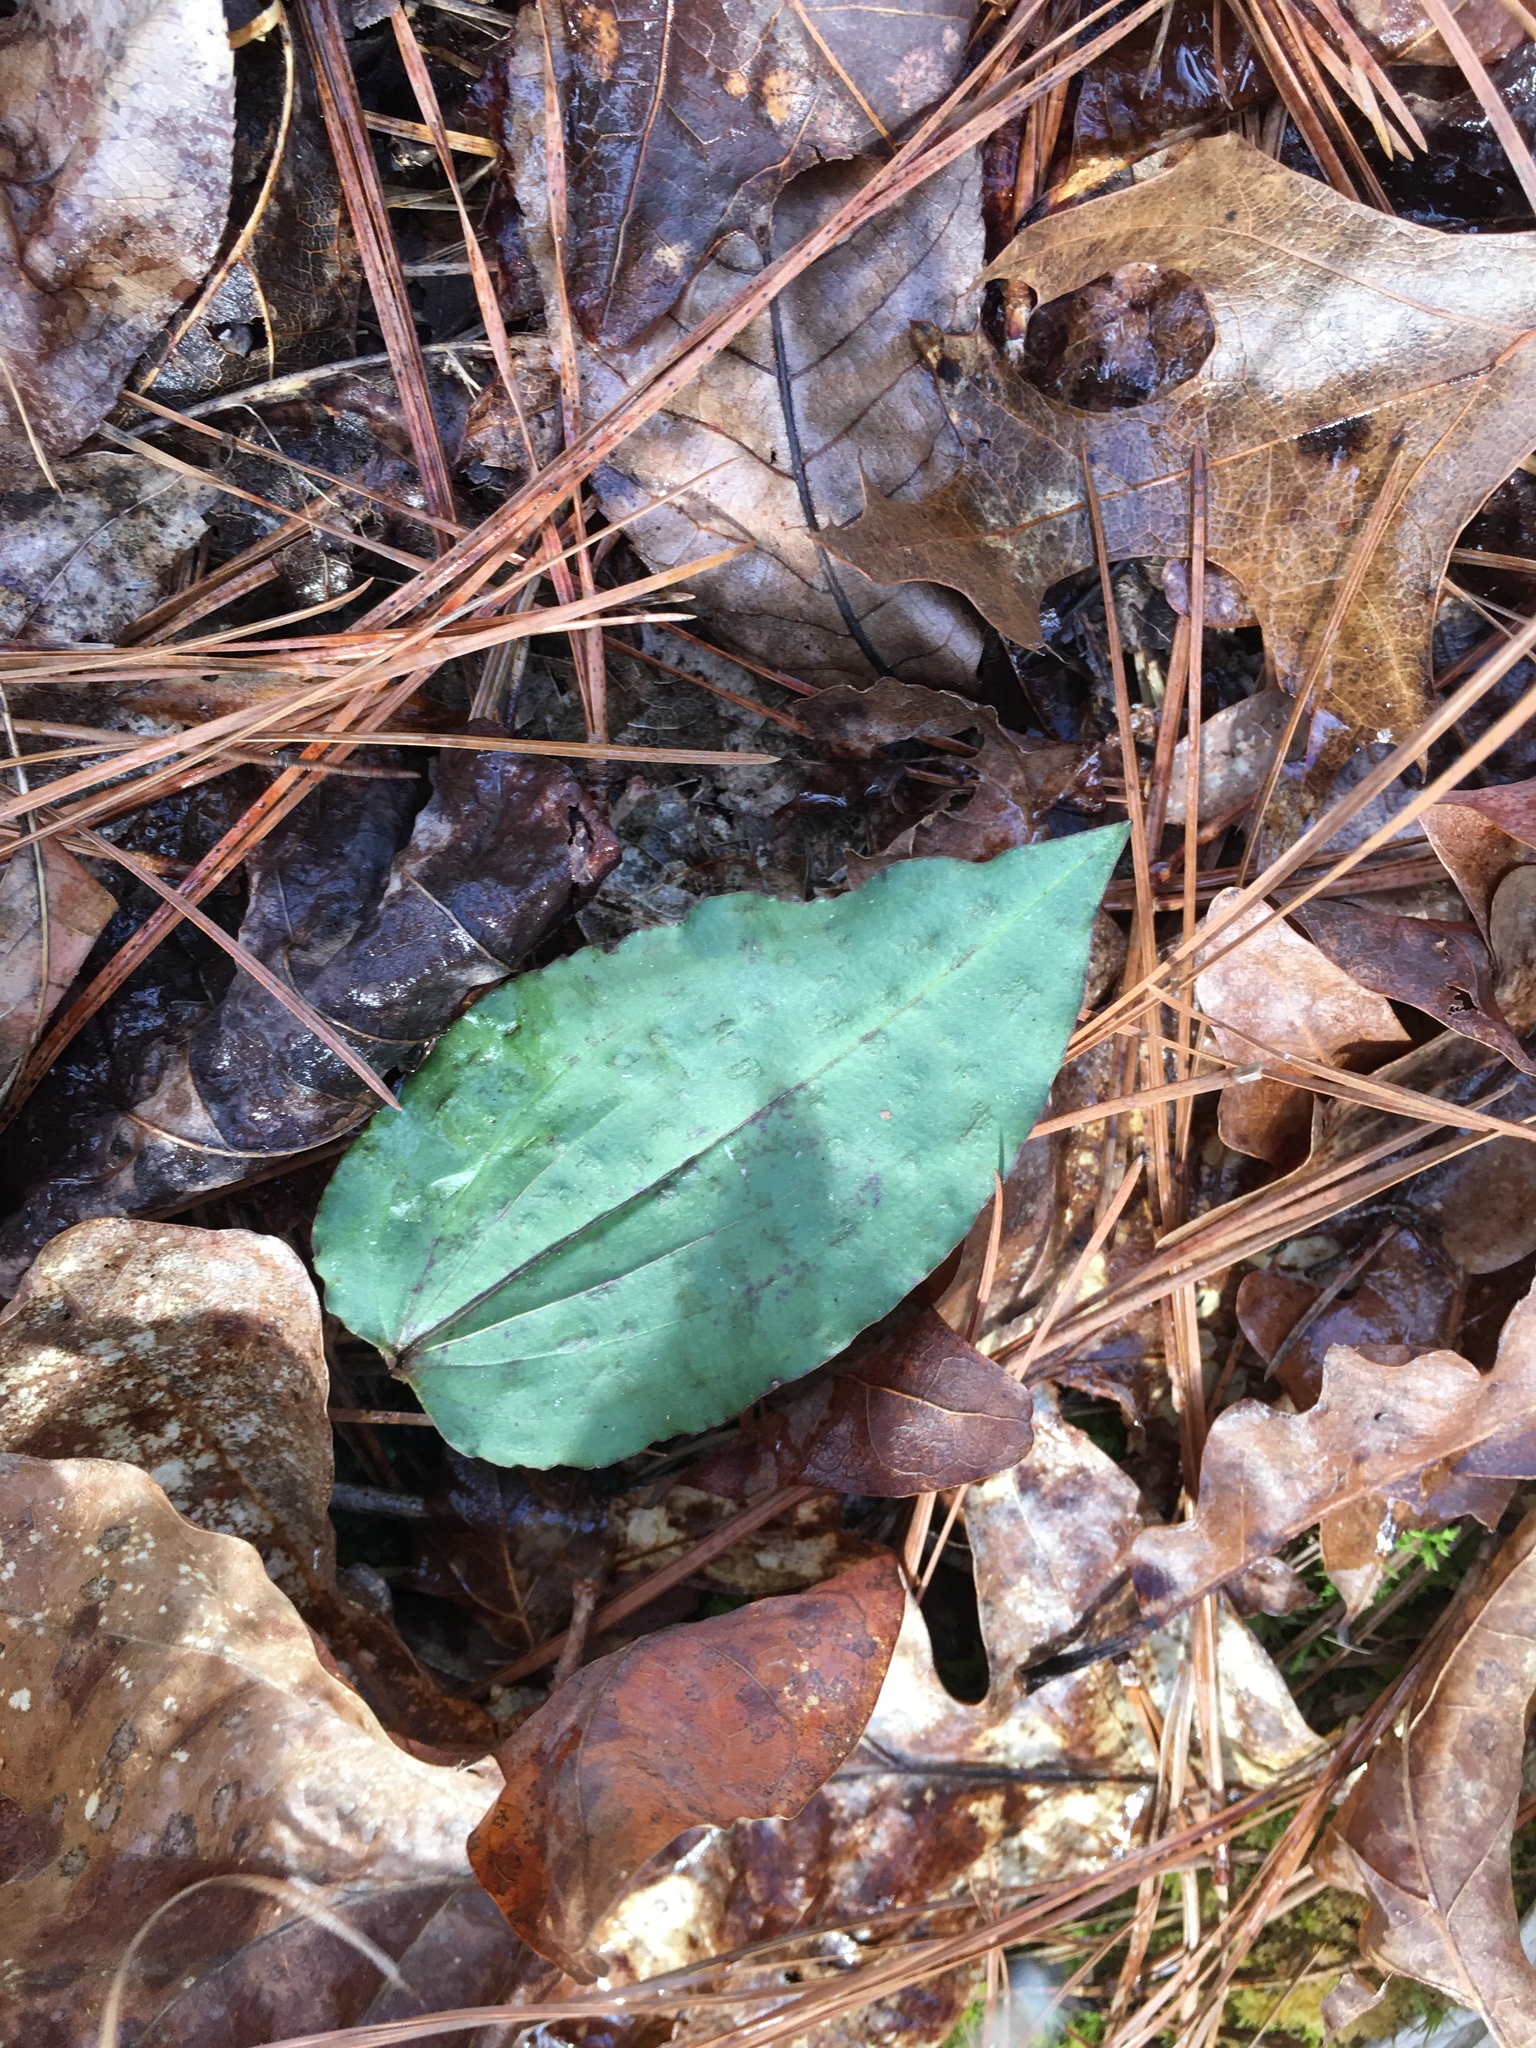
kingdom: Plantae
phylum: Tracheophyta
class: Liliopsida
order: Asparagales
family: Orchidaceae
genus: Tipularia
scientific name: Tipularia discolor
